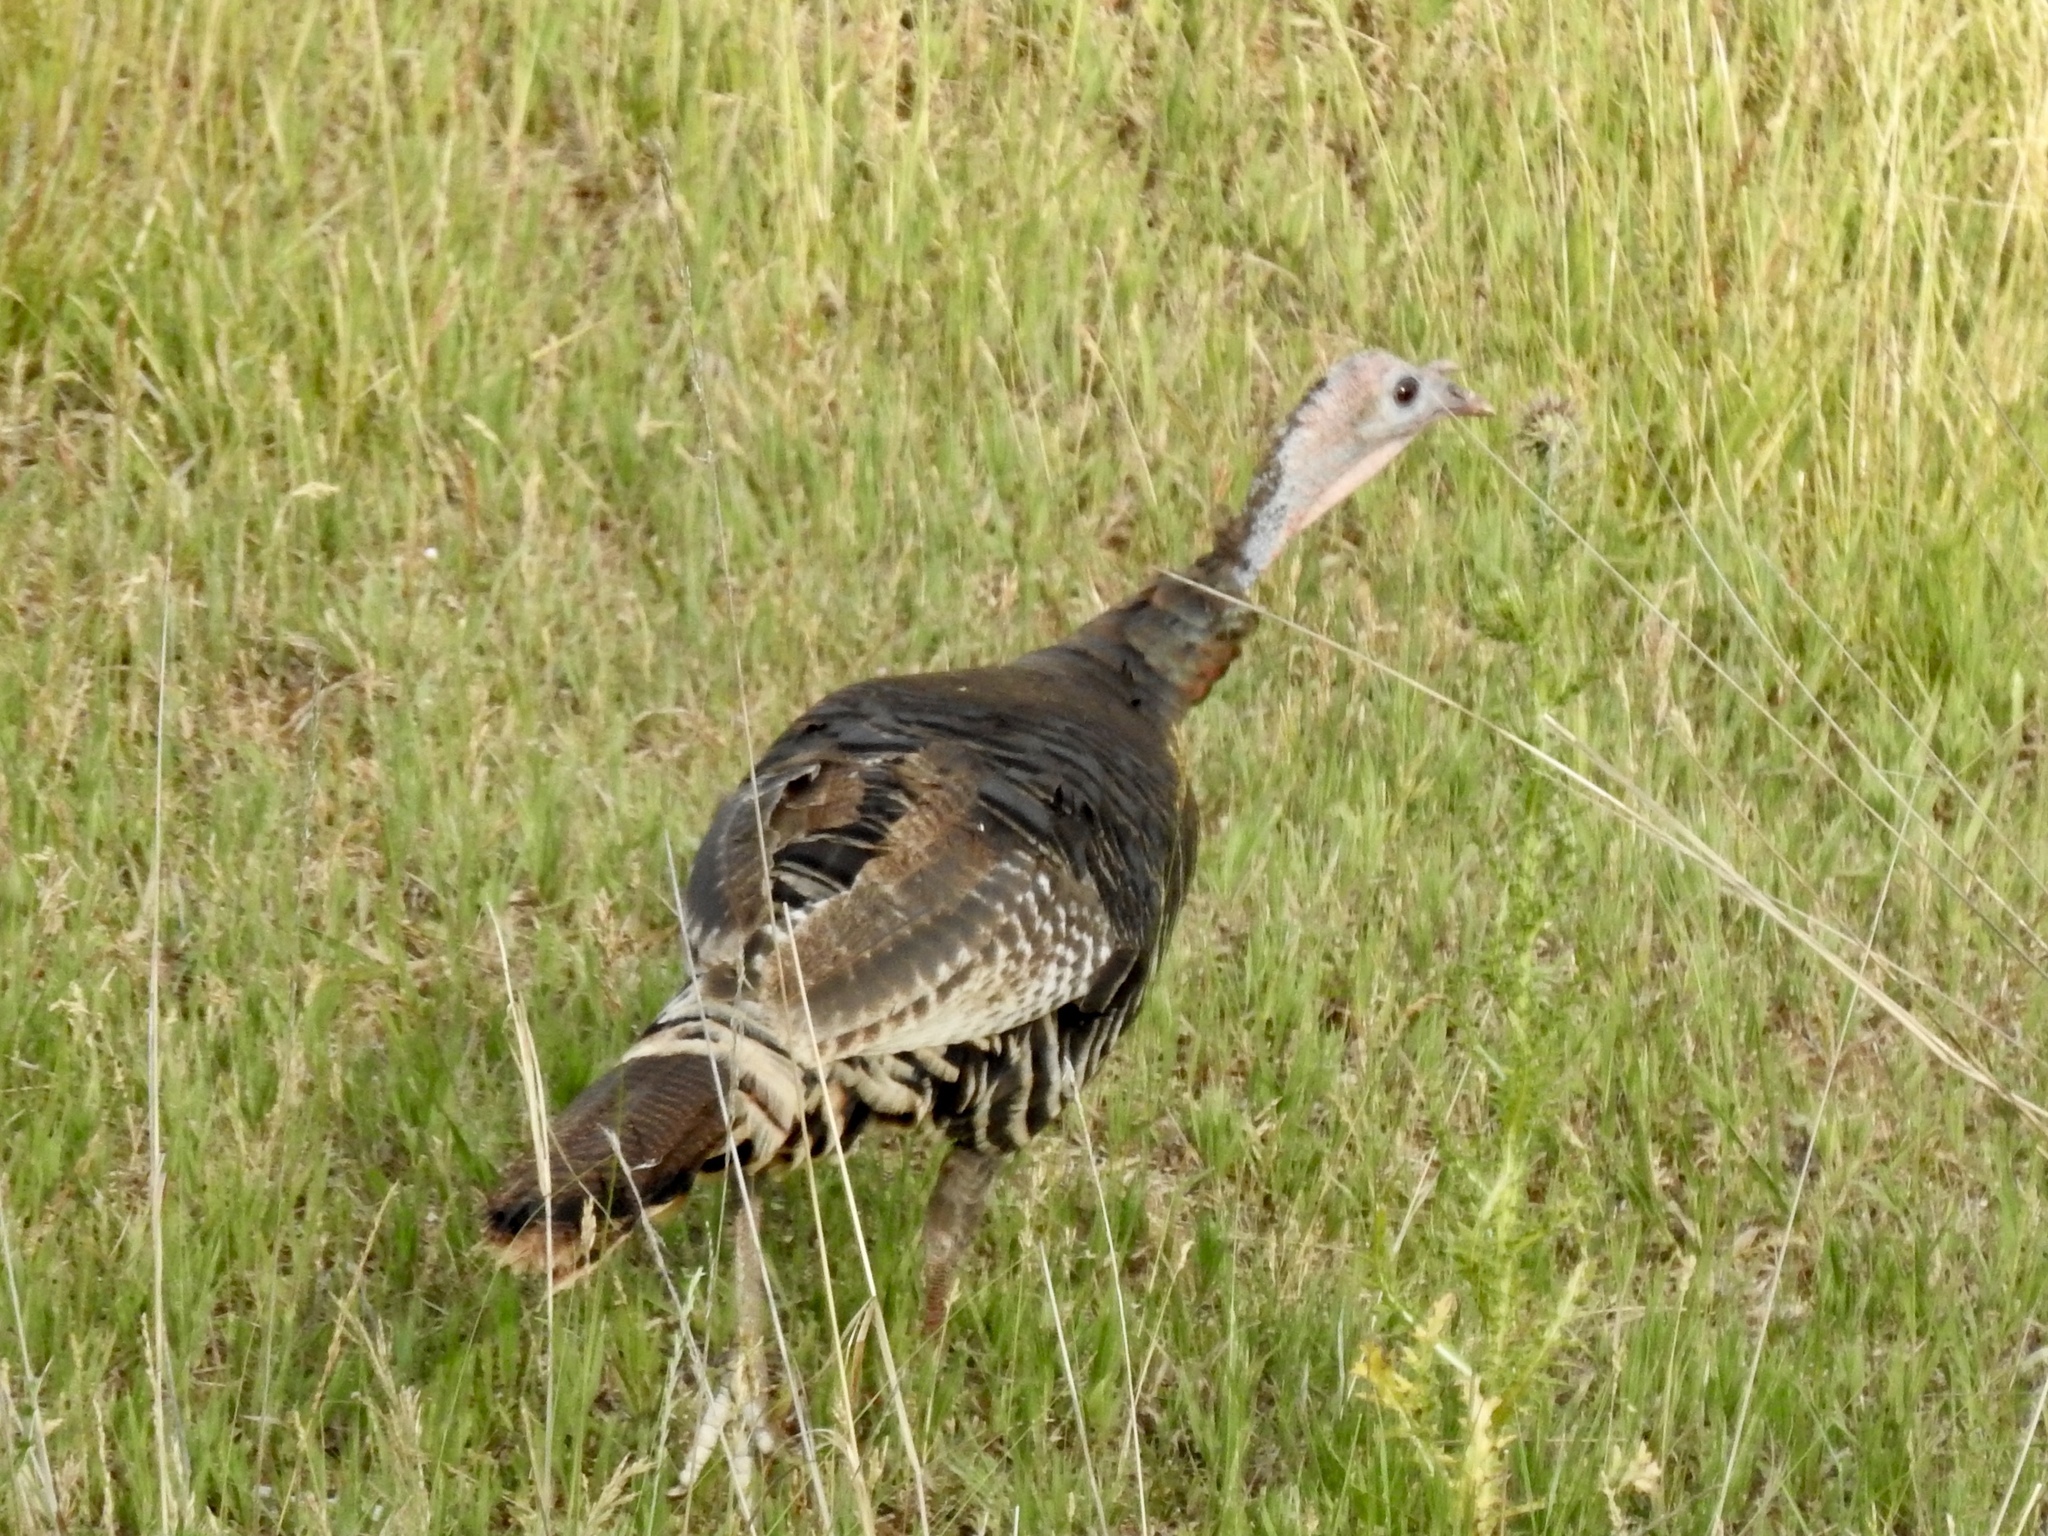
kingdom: Animalia
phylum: Chordata
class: Aves
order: Galliformes
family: Phasianidae
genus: Meleagris
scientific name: Meleagris gallopavo
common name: Wild turkey
